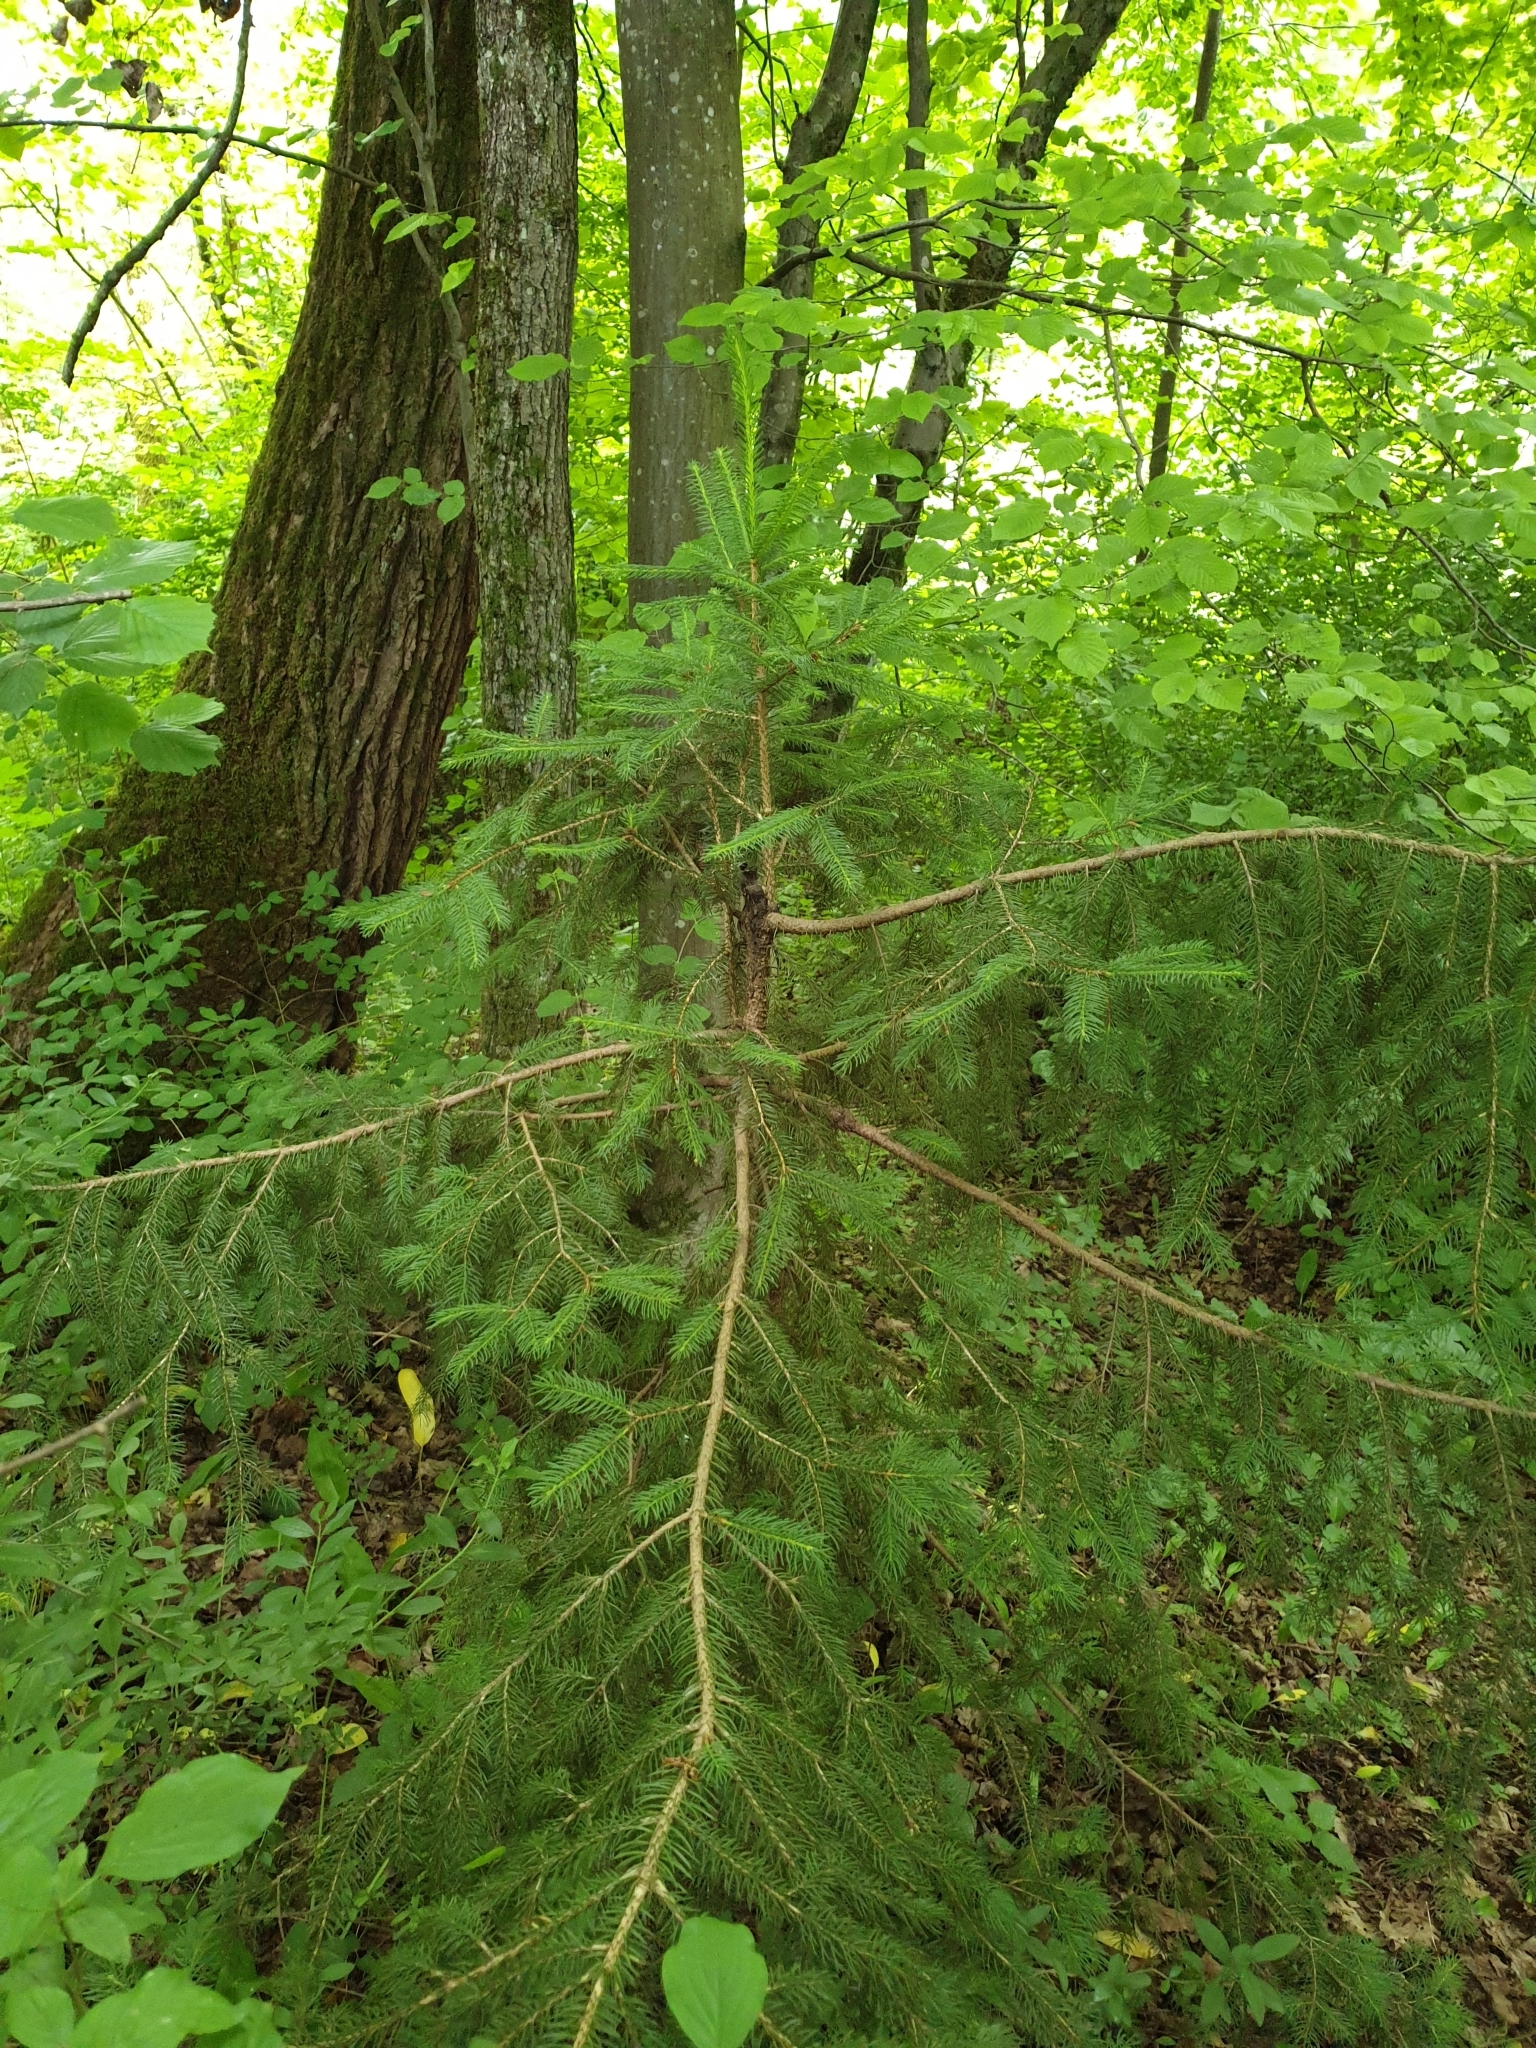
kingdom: Plantae
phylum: Tracheophyta
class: Pinopsida
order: Pinales
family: Pinaceae
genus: Picea
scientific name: Picea abies
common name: Norway spruce
